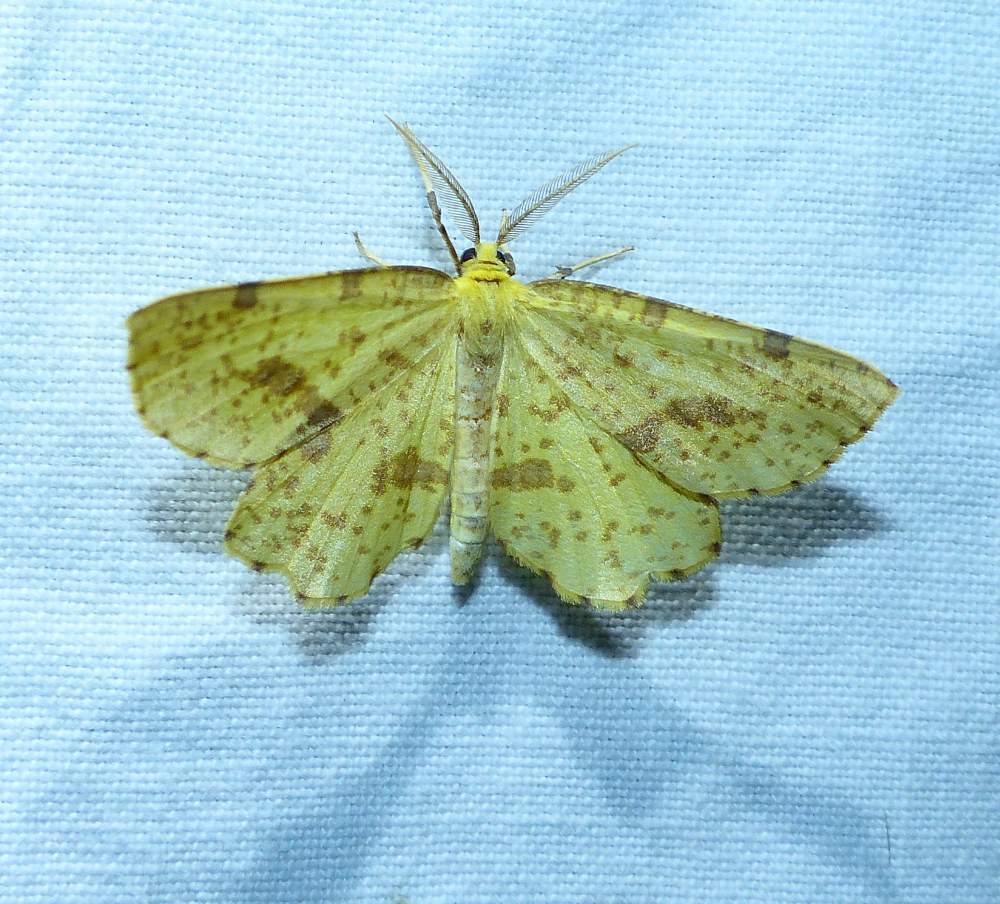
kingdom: Animalia
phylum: Arthropoda
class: Insecta
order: Lepidoptera
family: Geometridae
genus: Xanthotype
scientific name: Xanthotype
